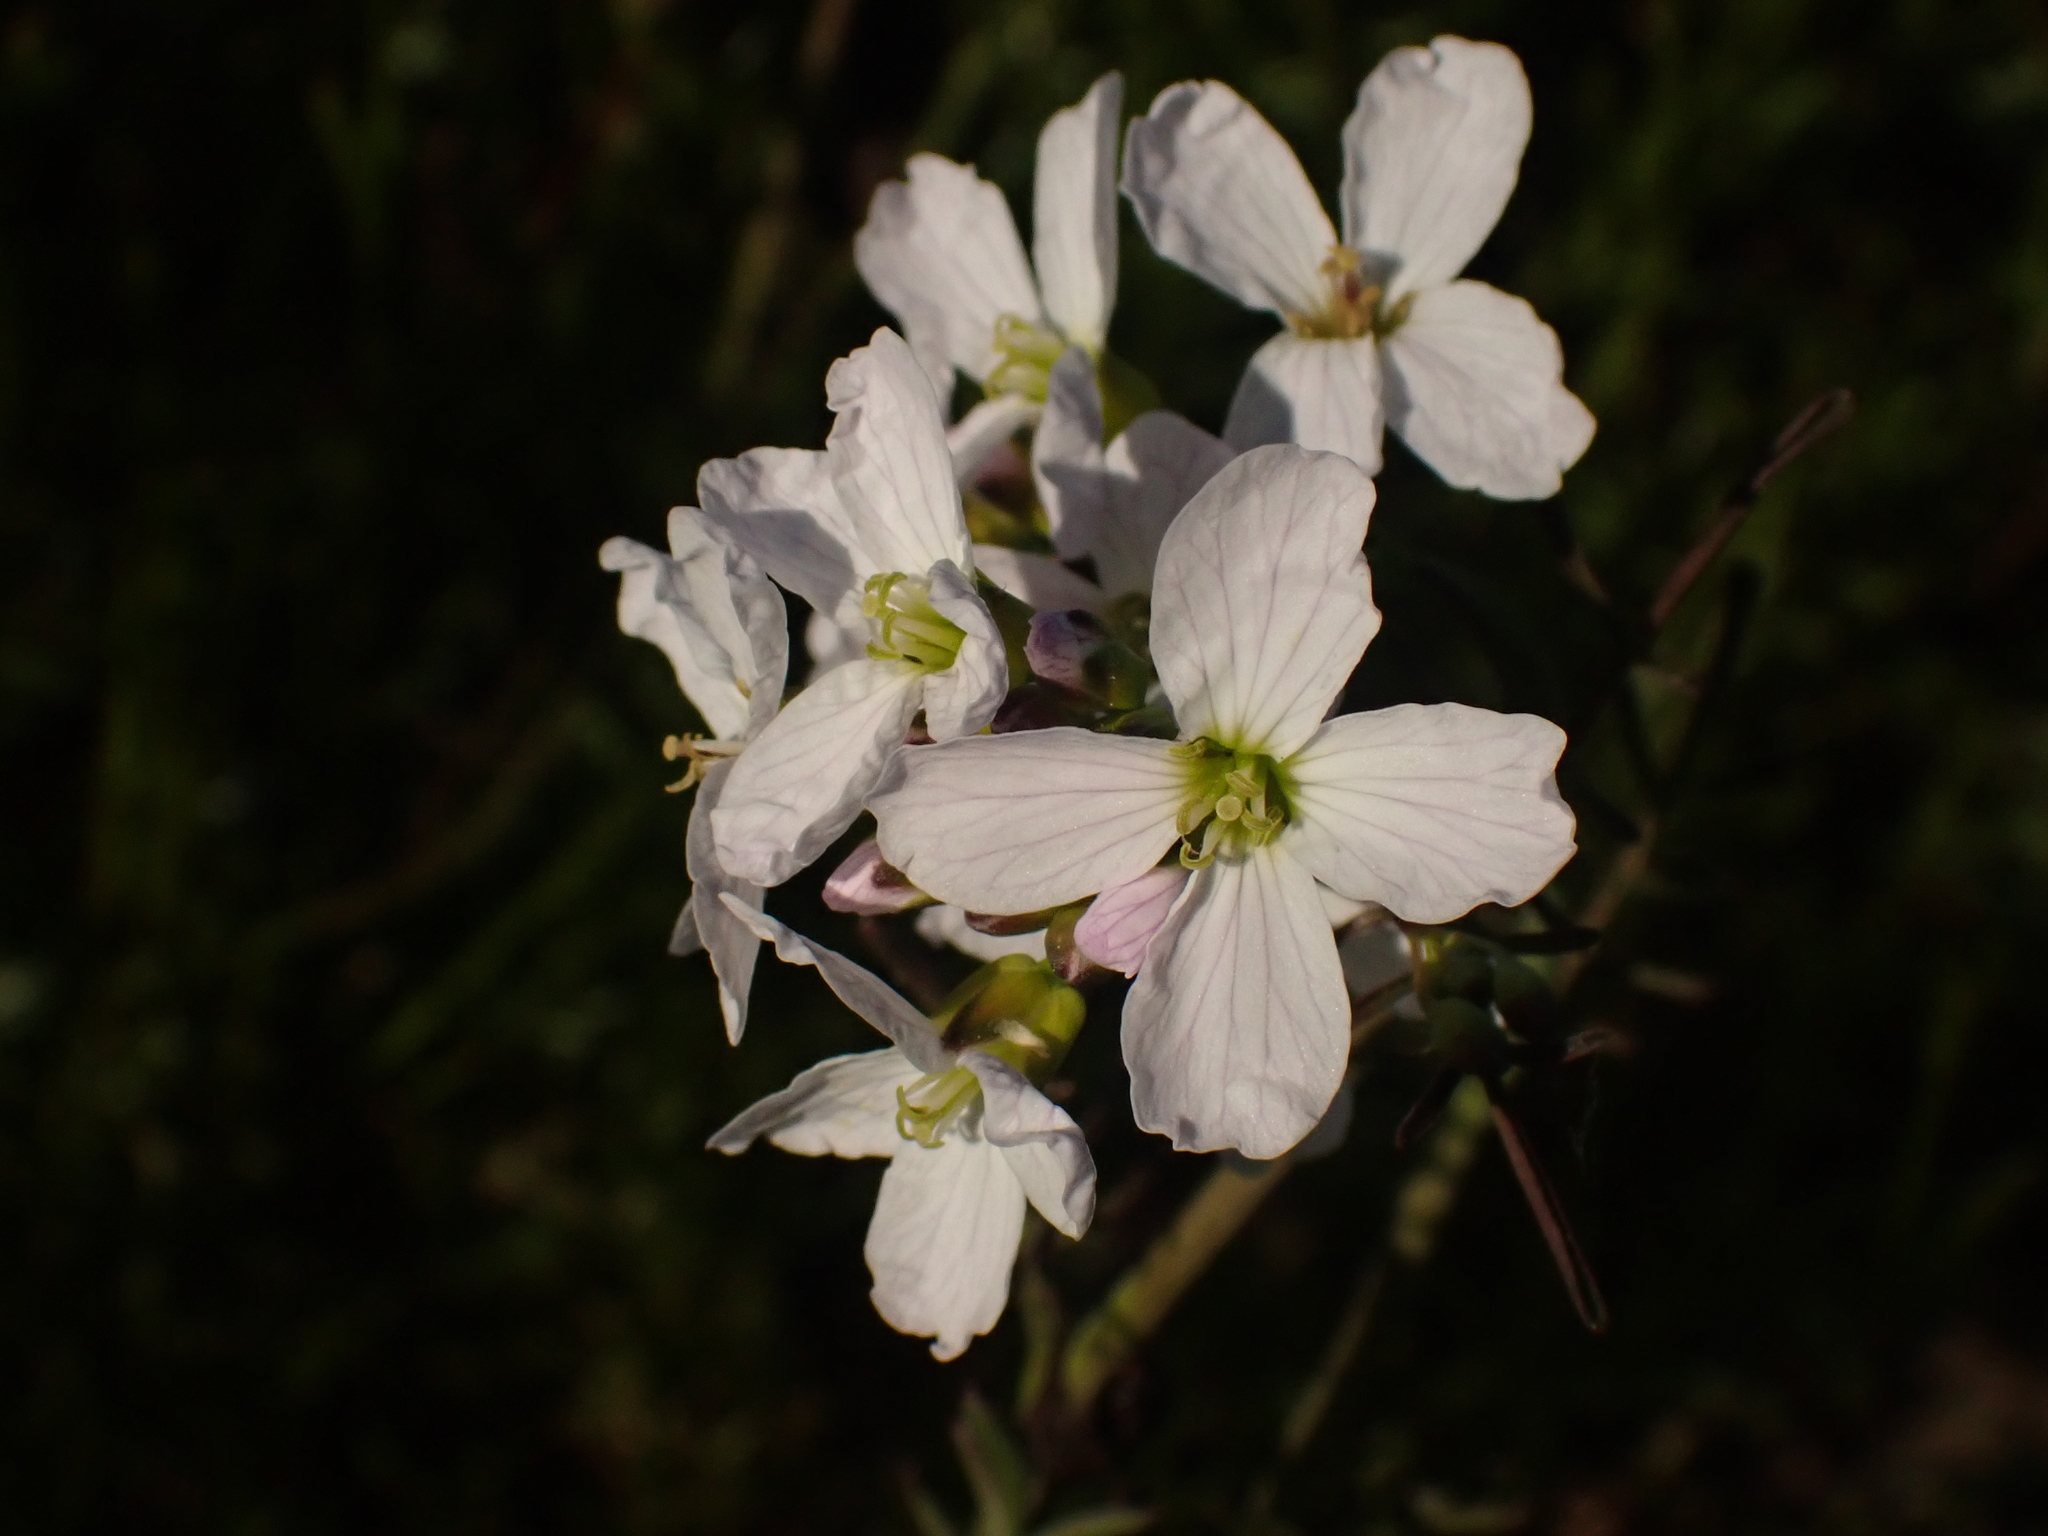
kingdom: Plantae
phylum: Tracheophyta
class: Magnoliopsida
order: Brassicales
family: Brassicaceae
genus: Cardamine
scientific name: Cardamine pratensis
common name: Cuckoo flower
